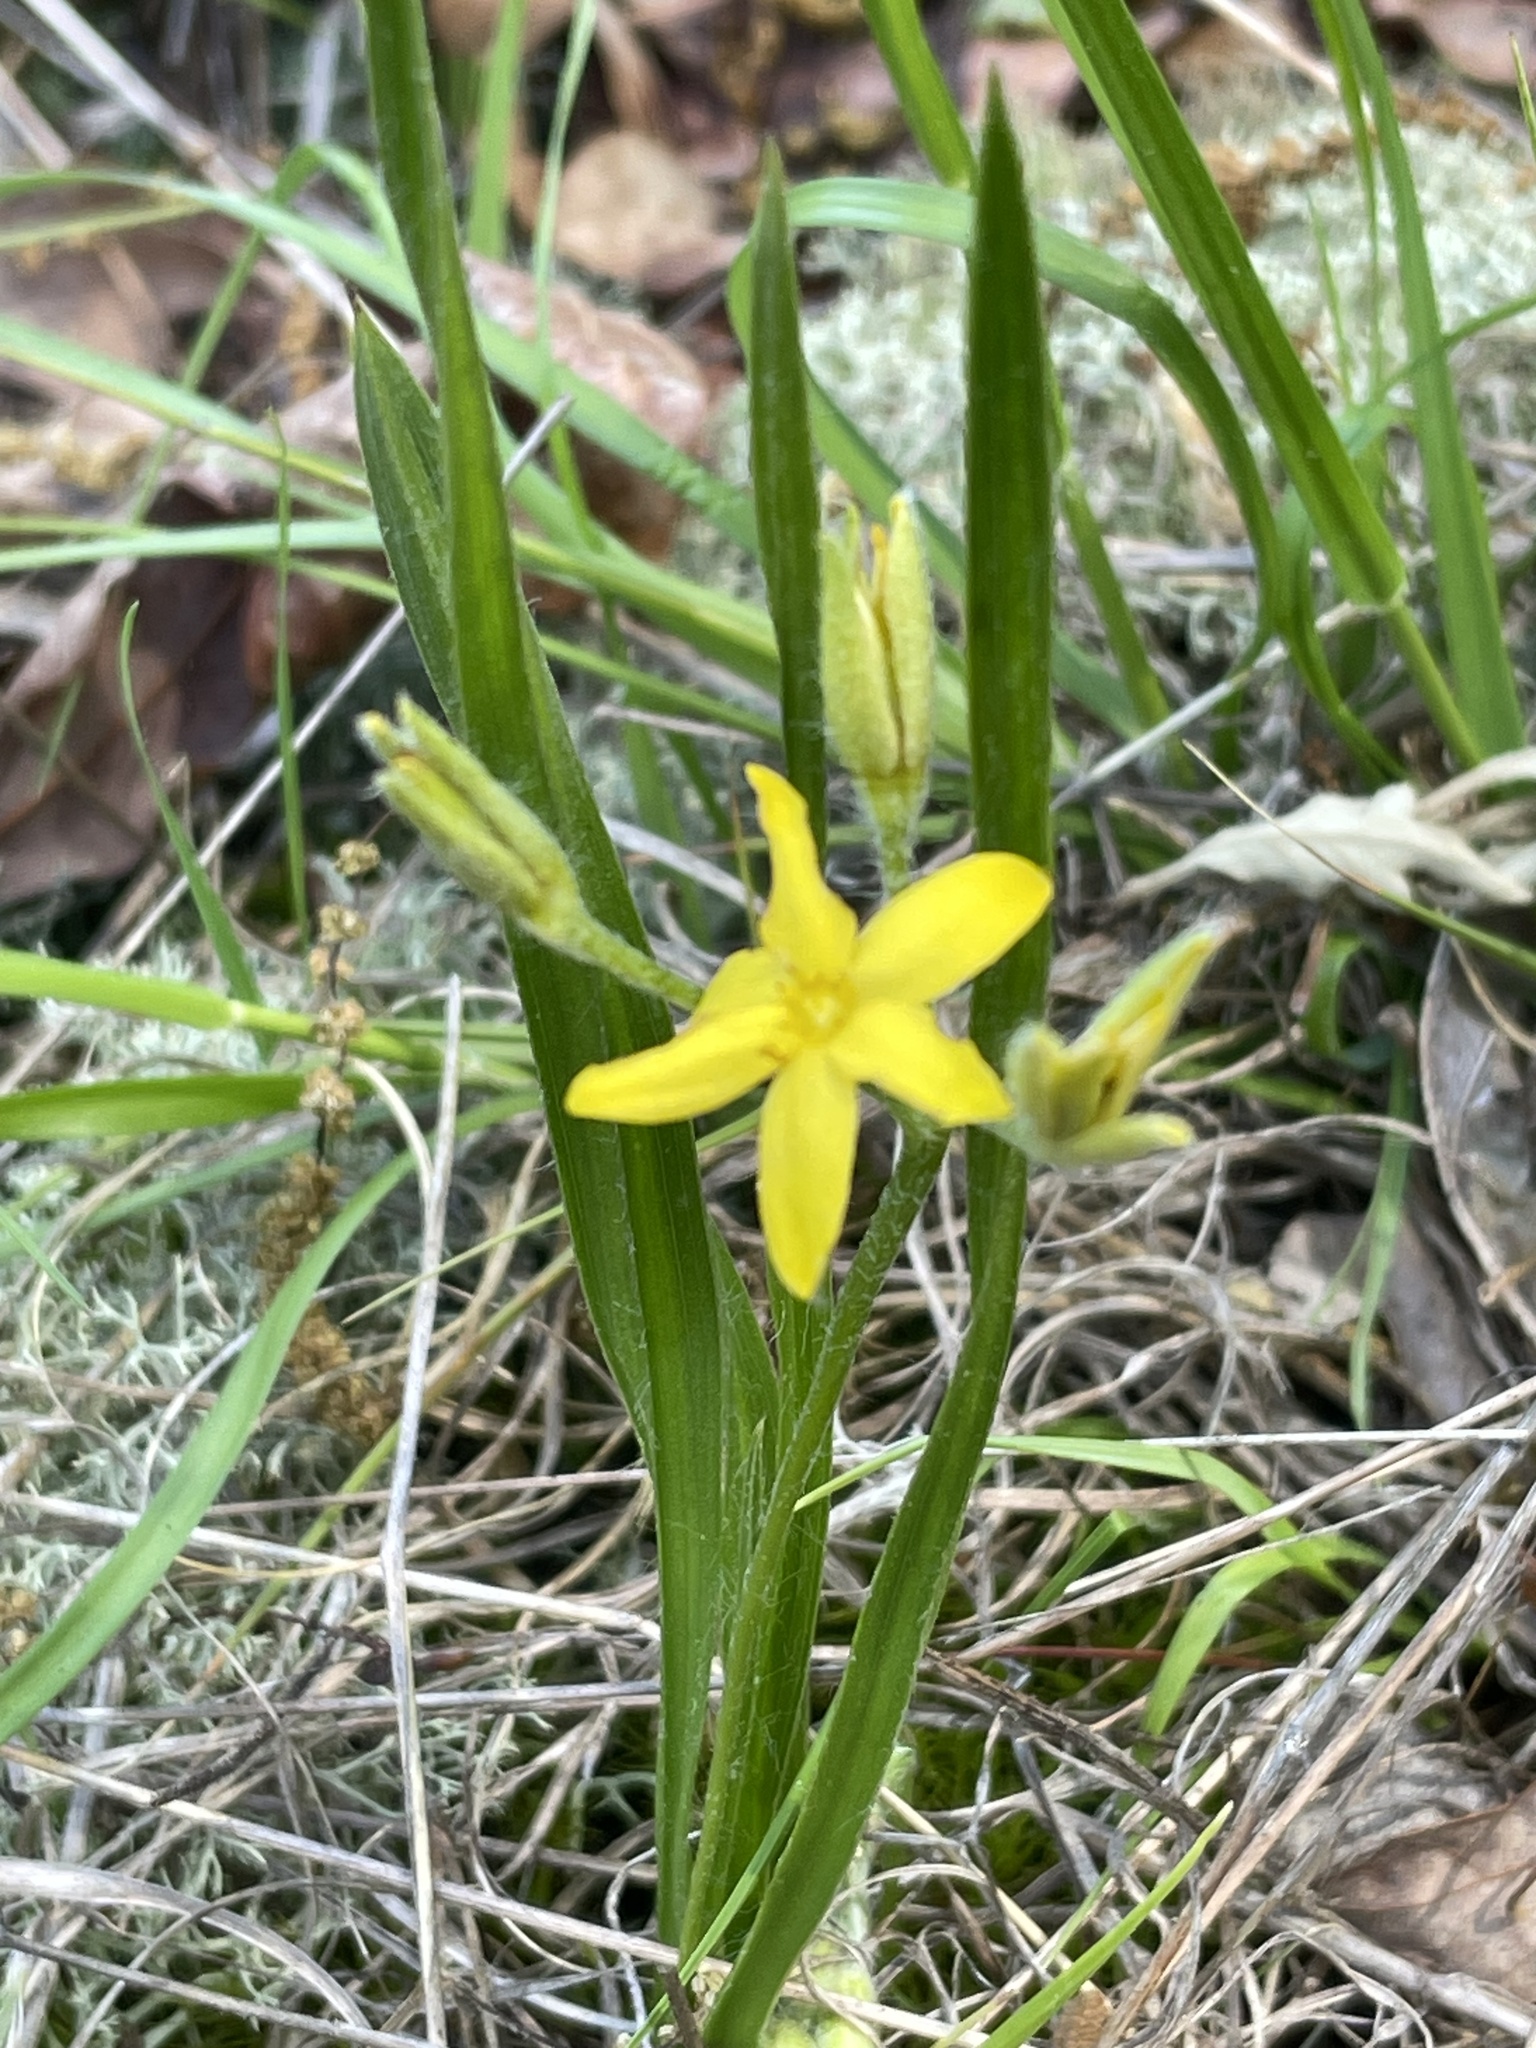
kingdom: Plantae
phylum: Tracheophyta
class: Liliopsida
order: Asparagales
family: Hypoxidaceae
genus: Hypoxis
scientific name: Hypoxis hirsuta
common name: Common goldstar
